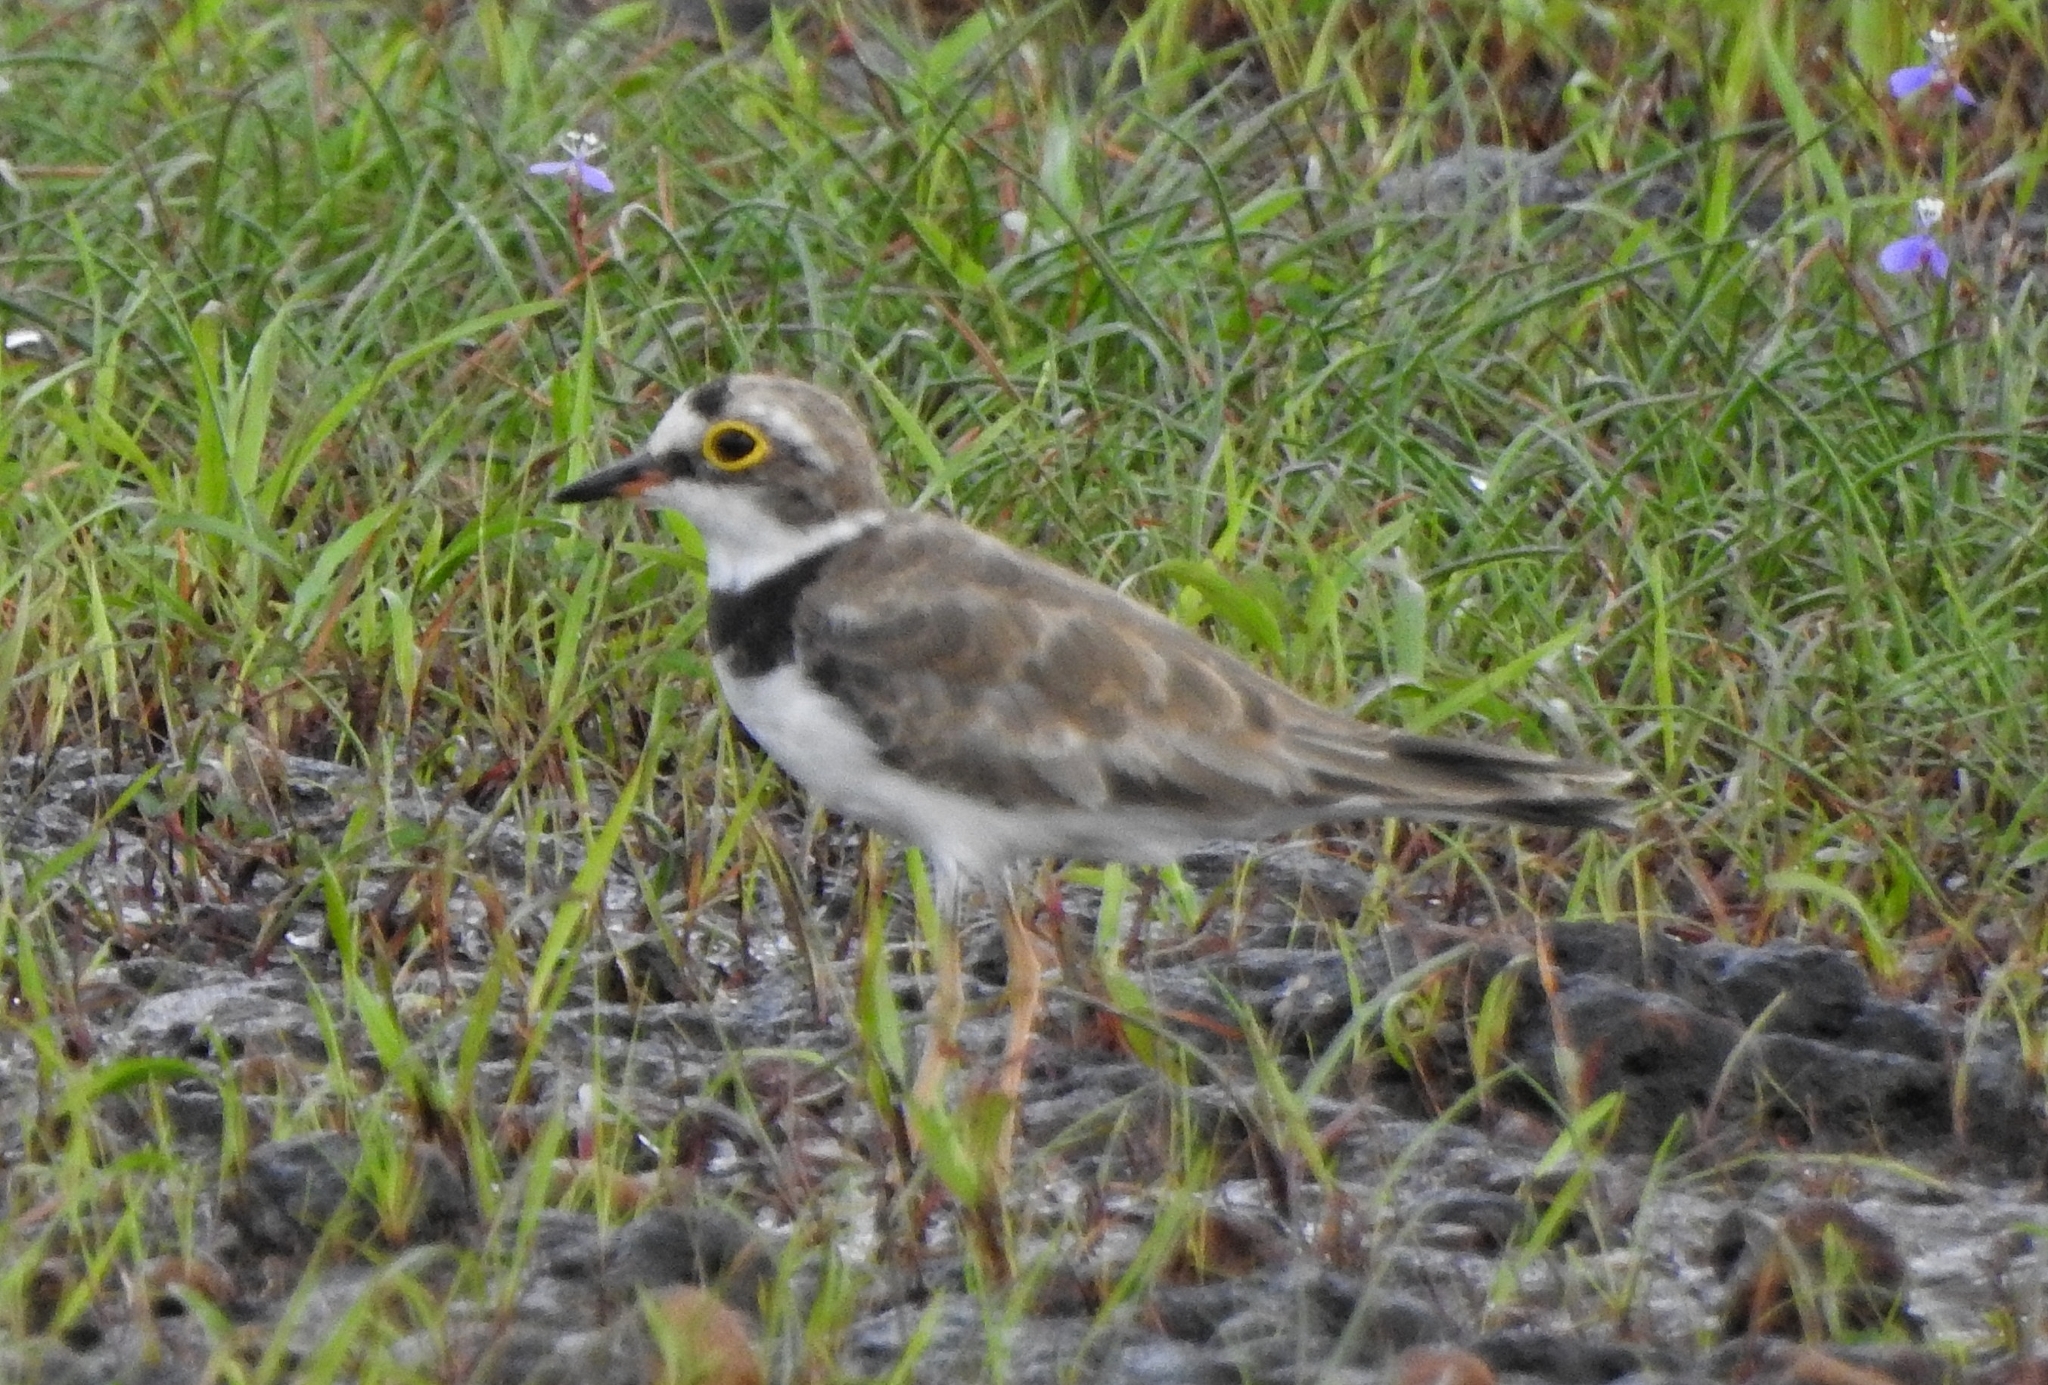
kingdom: Animalia
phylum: Chordata
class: Aves
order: Charadriiformes
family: Charadriidae
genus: Charadrius
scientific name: Charadrius dubius
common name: Little ringed plover
